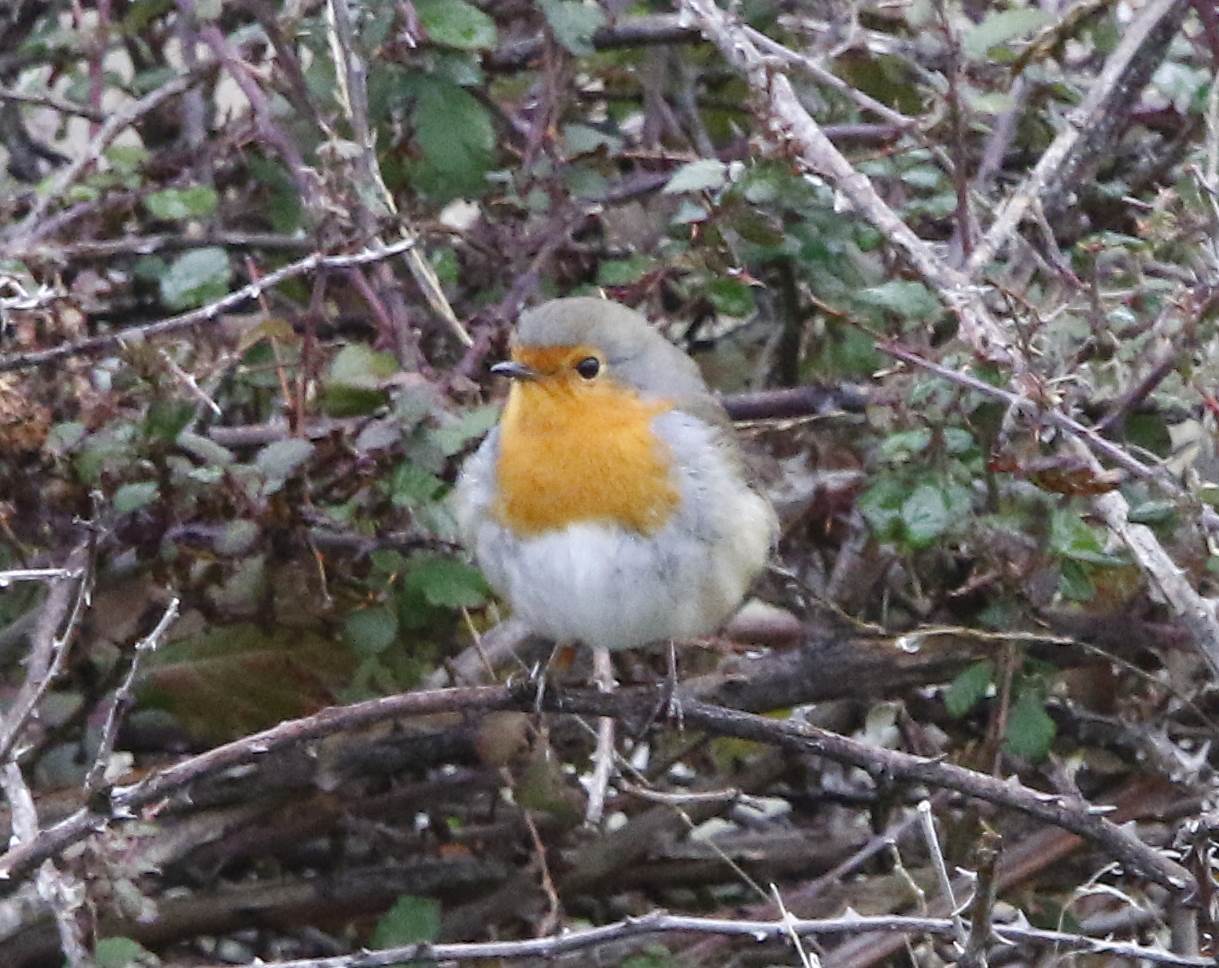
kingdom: Animalia
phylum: Chordata
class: Aves
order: Passeriformes
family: Muscicapidae
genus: Erithacus
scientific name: Erithacus rubecula
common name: European robin
